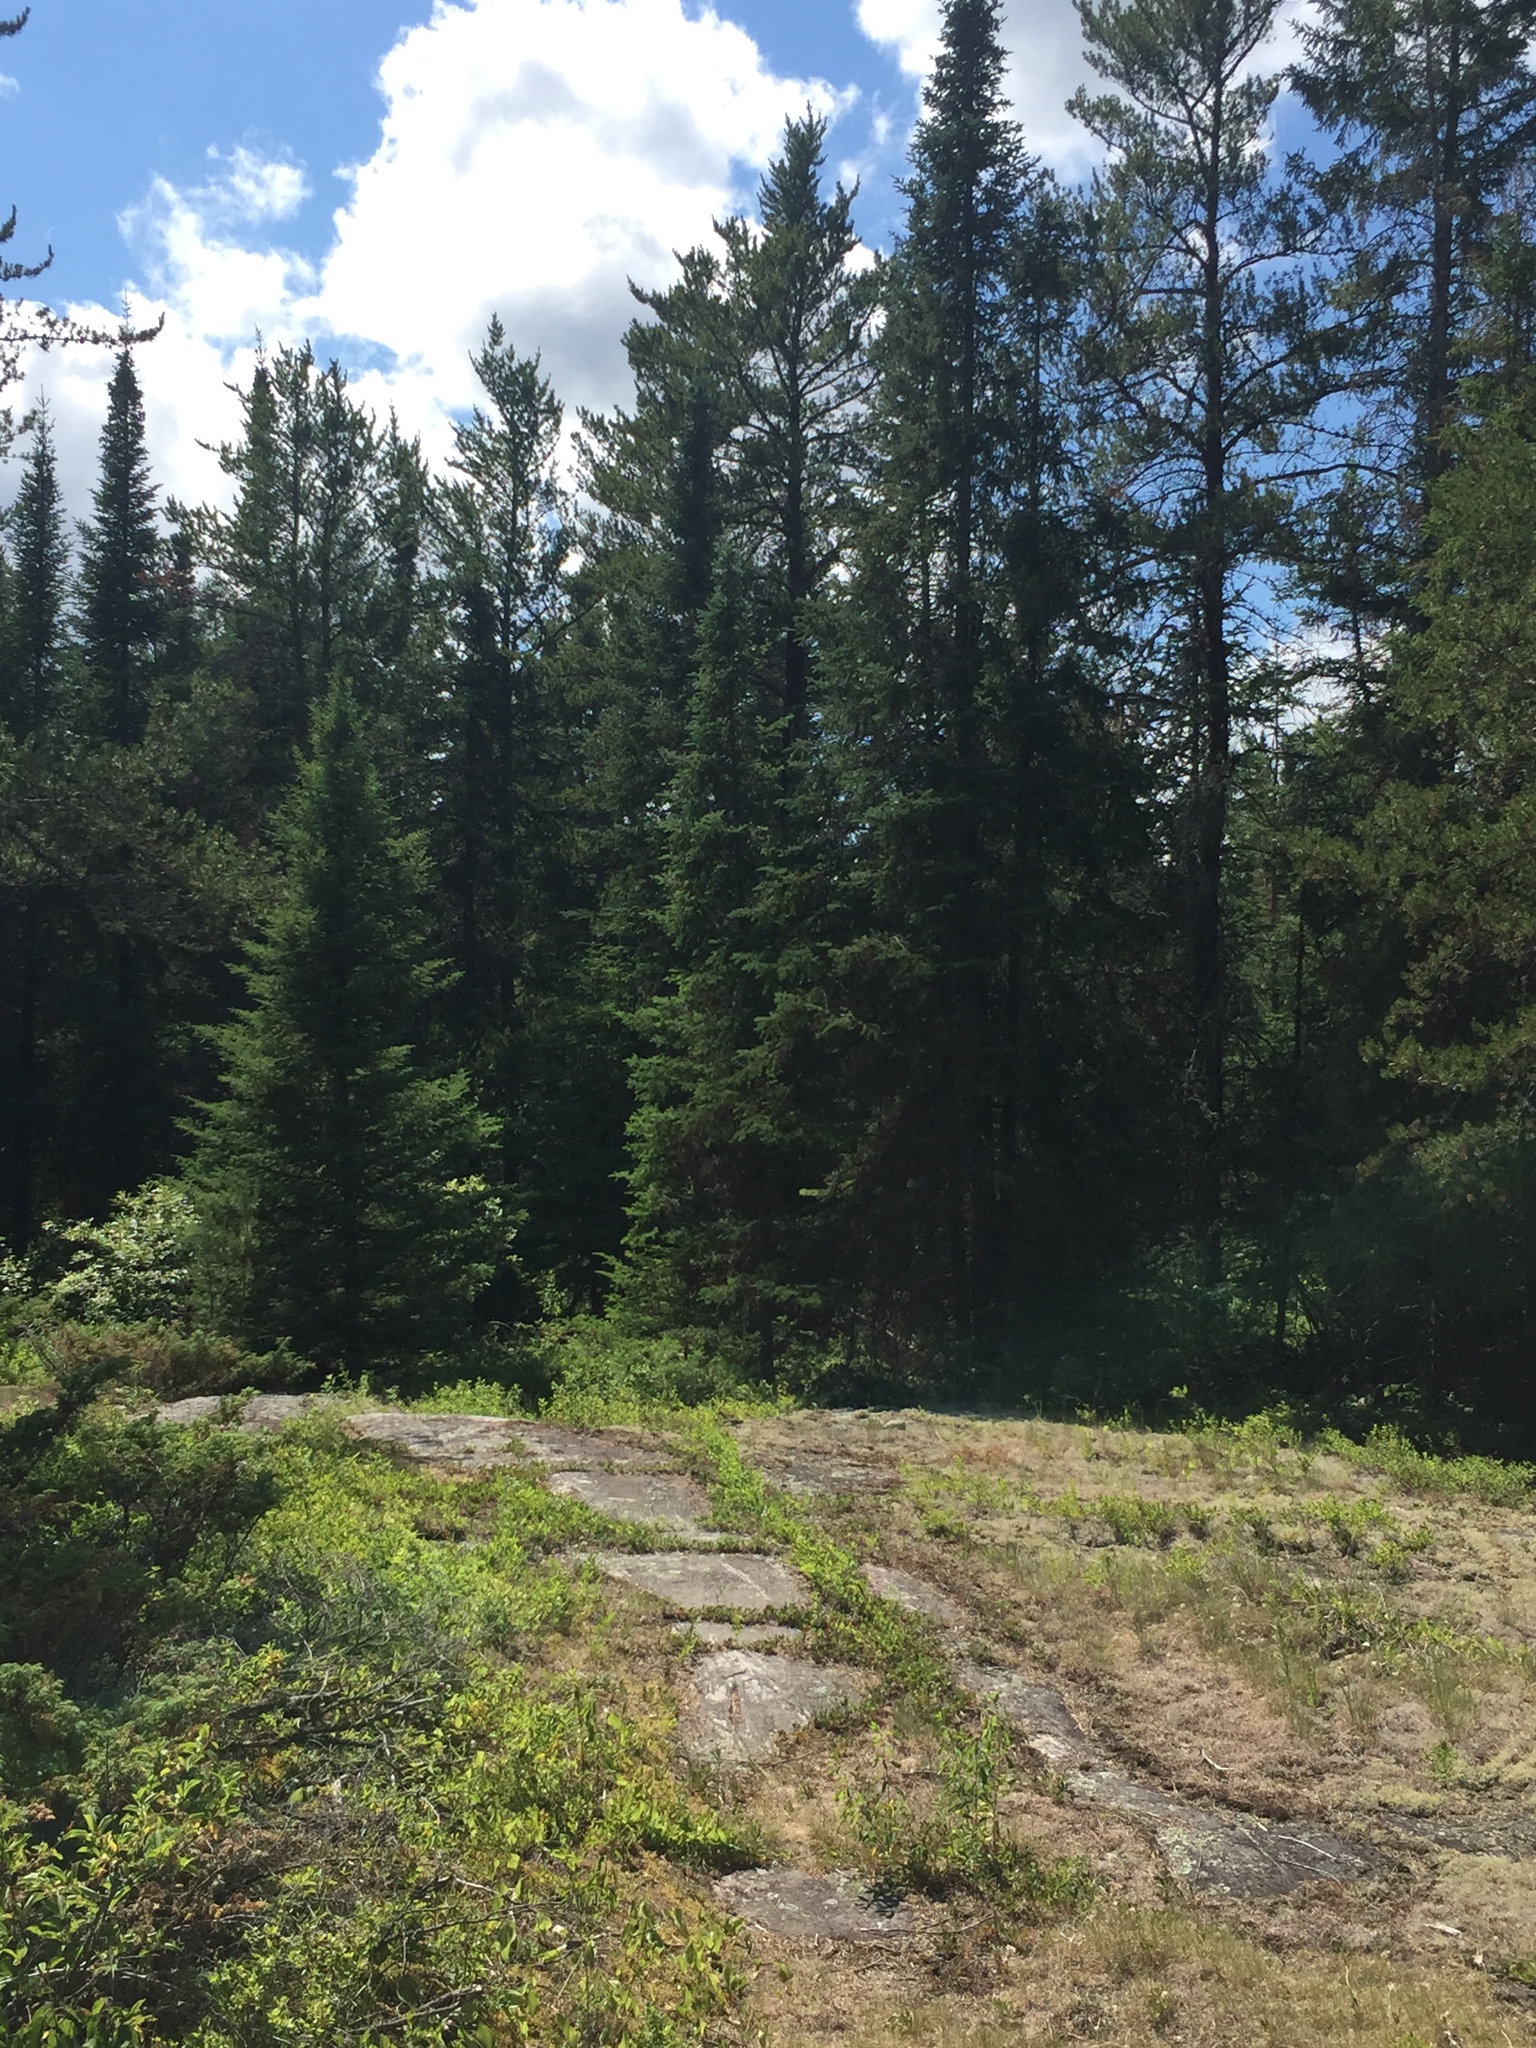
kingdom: Plantae
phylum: Tracheophyta
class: Pinopsida
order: Pinales
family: Pinaceae
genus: Picea
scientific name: Picea mariana
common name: Black spruce
